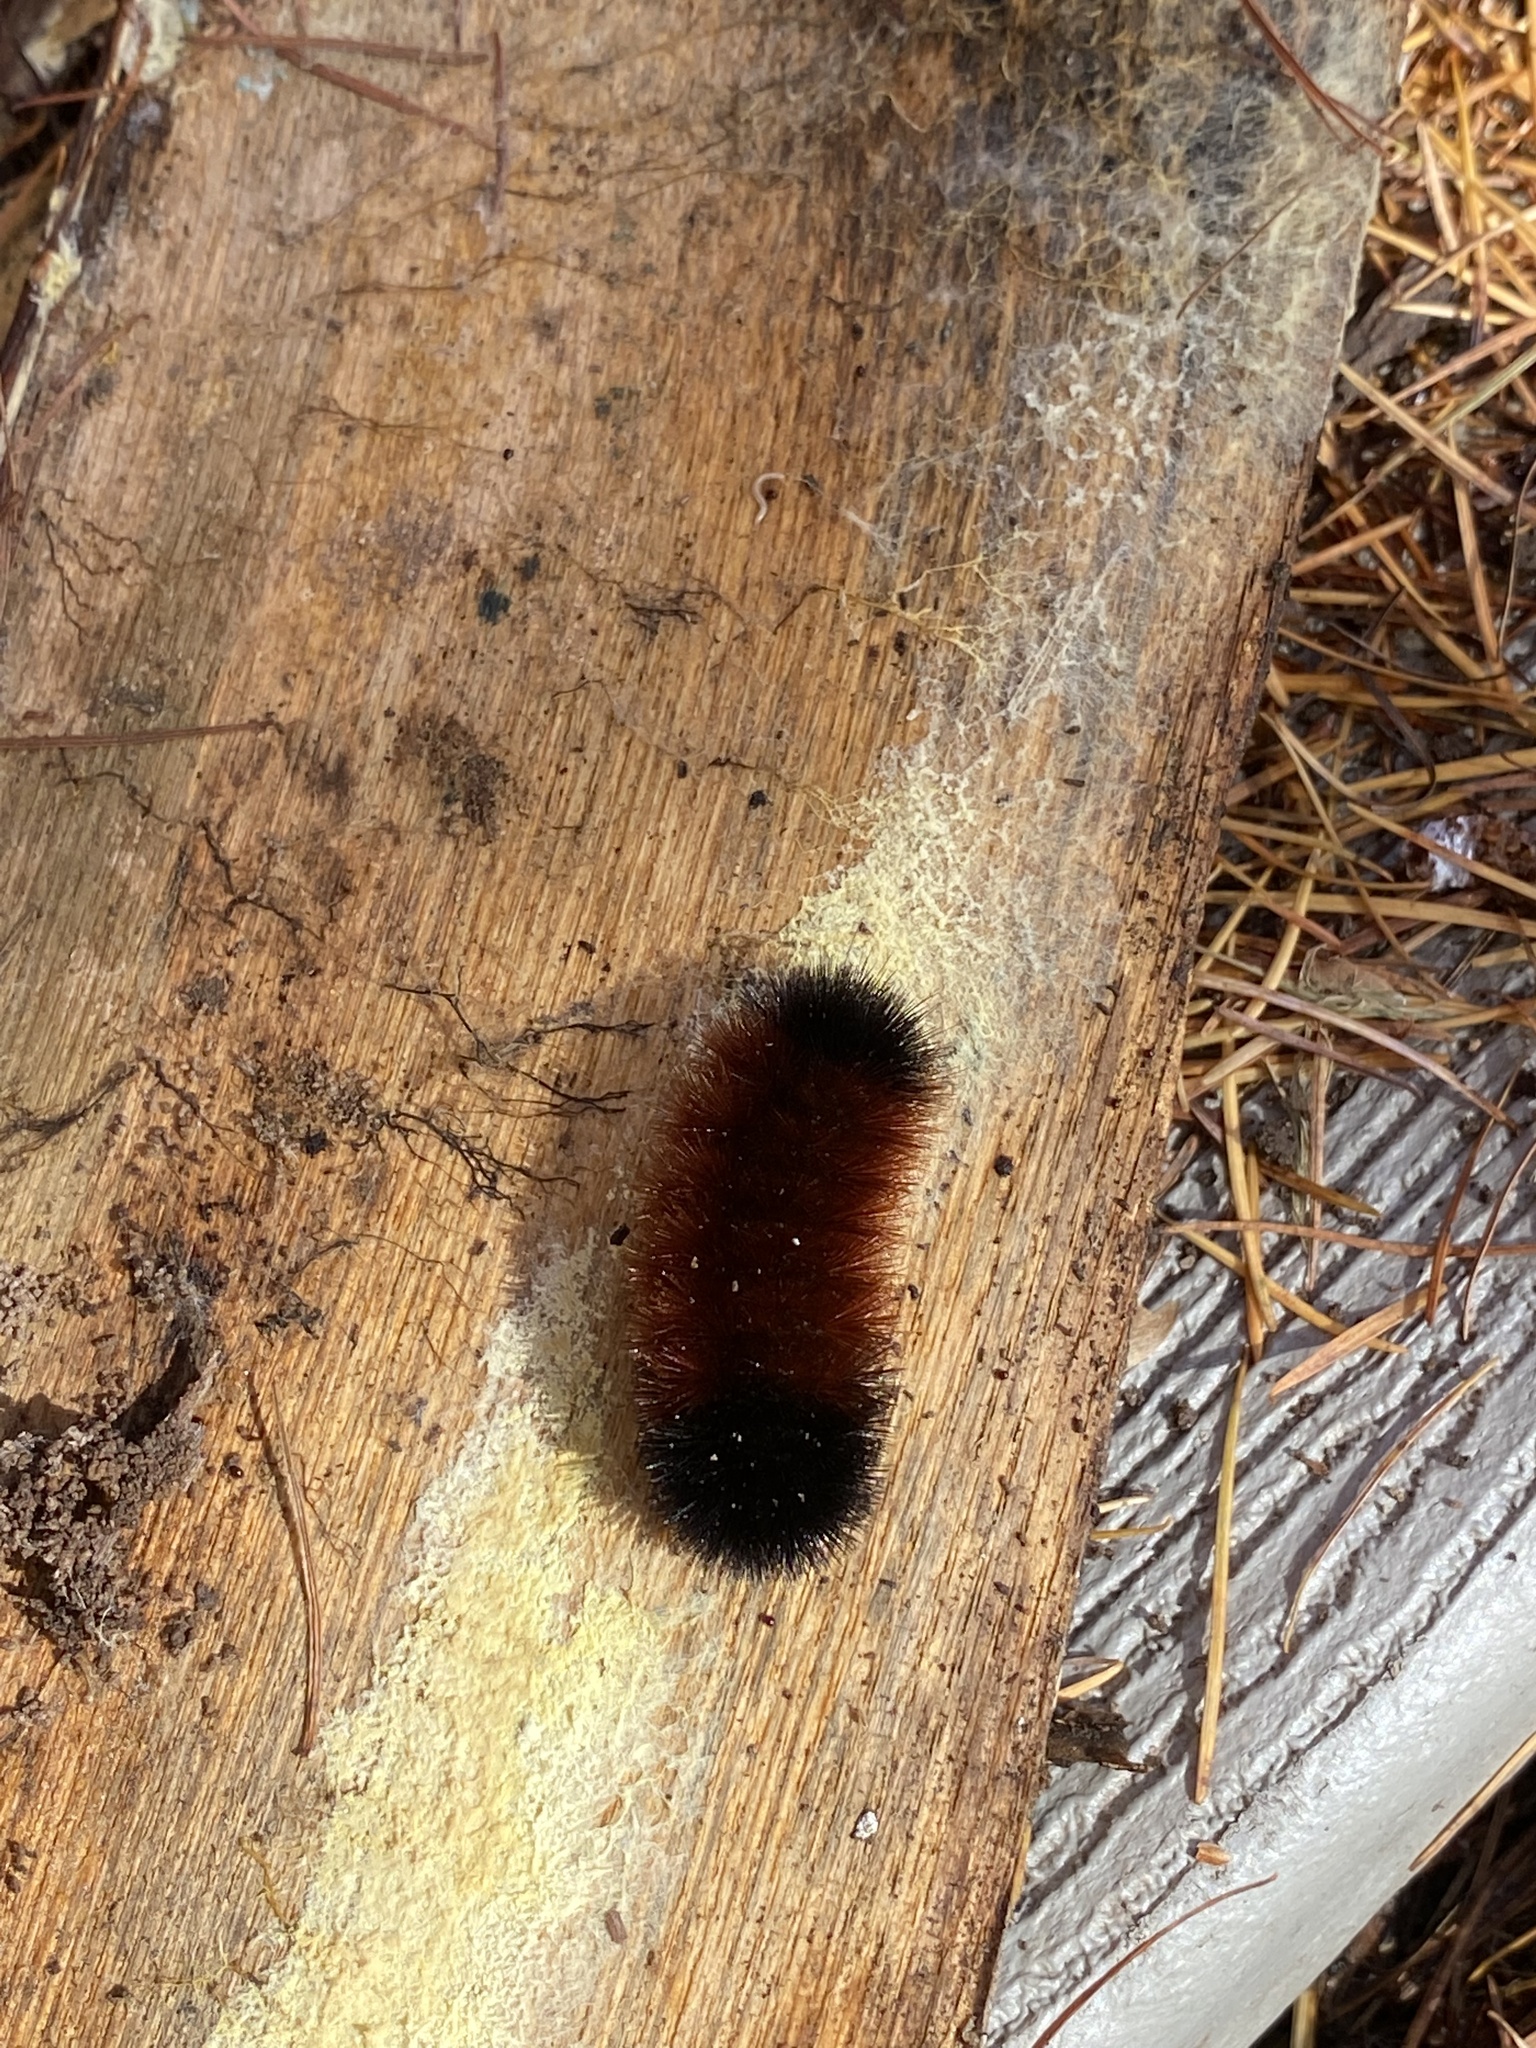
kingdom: Animalia
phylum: Arthropoda
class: Insecta
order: Lepidoptera
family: Erebidae
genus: Pyrrharctia
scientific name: Pyrrharctia isabella
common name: Isabella tiger moth
